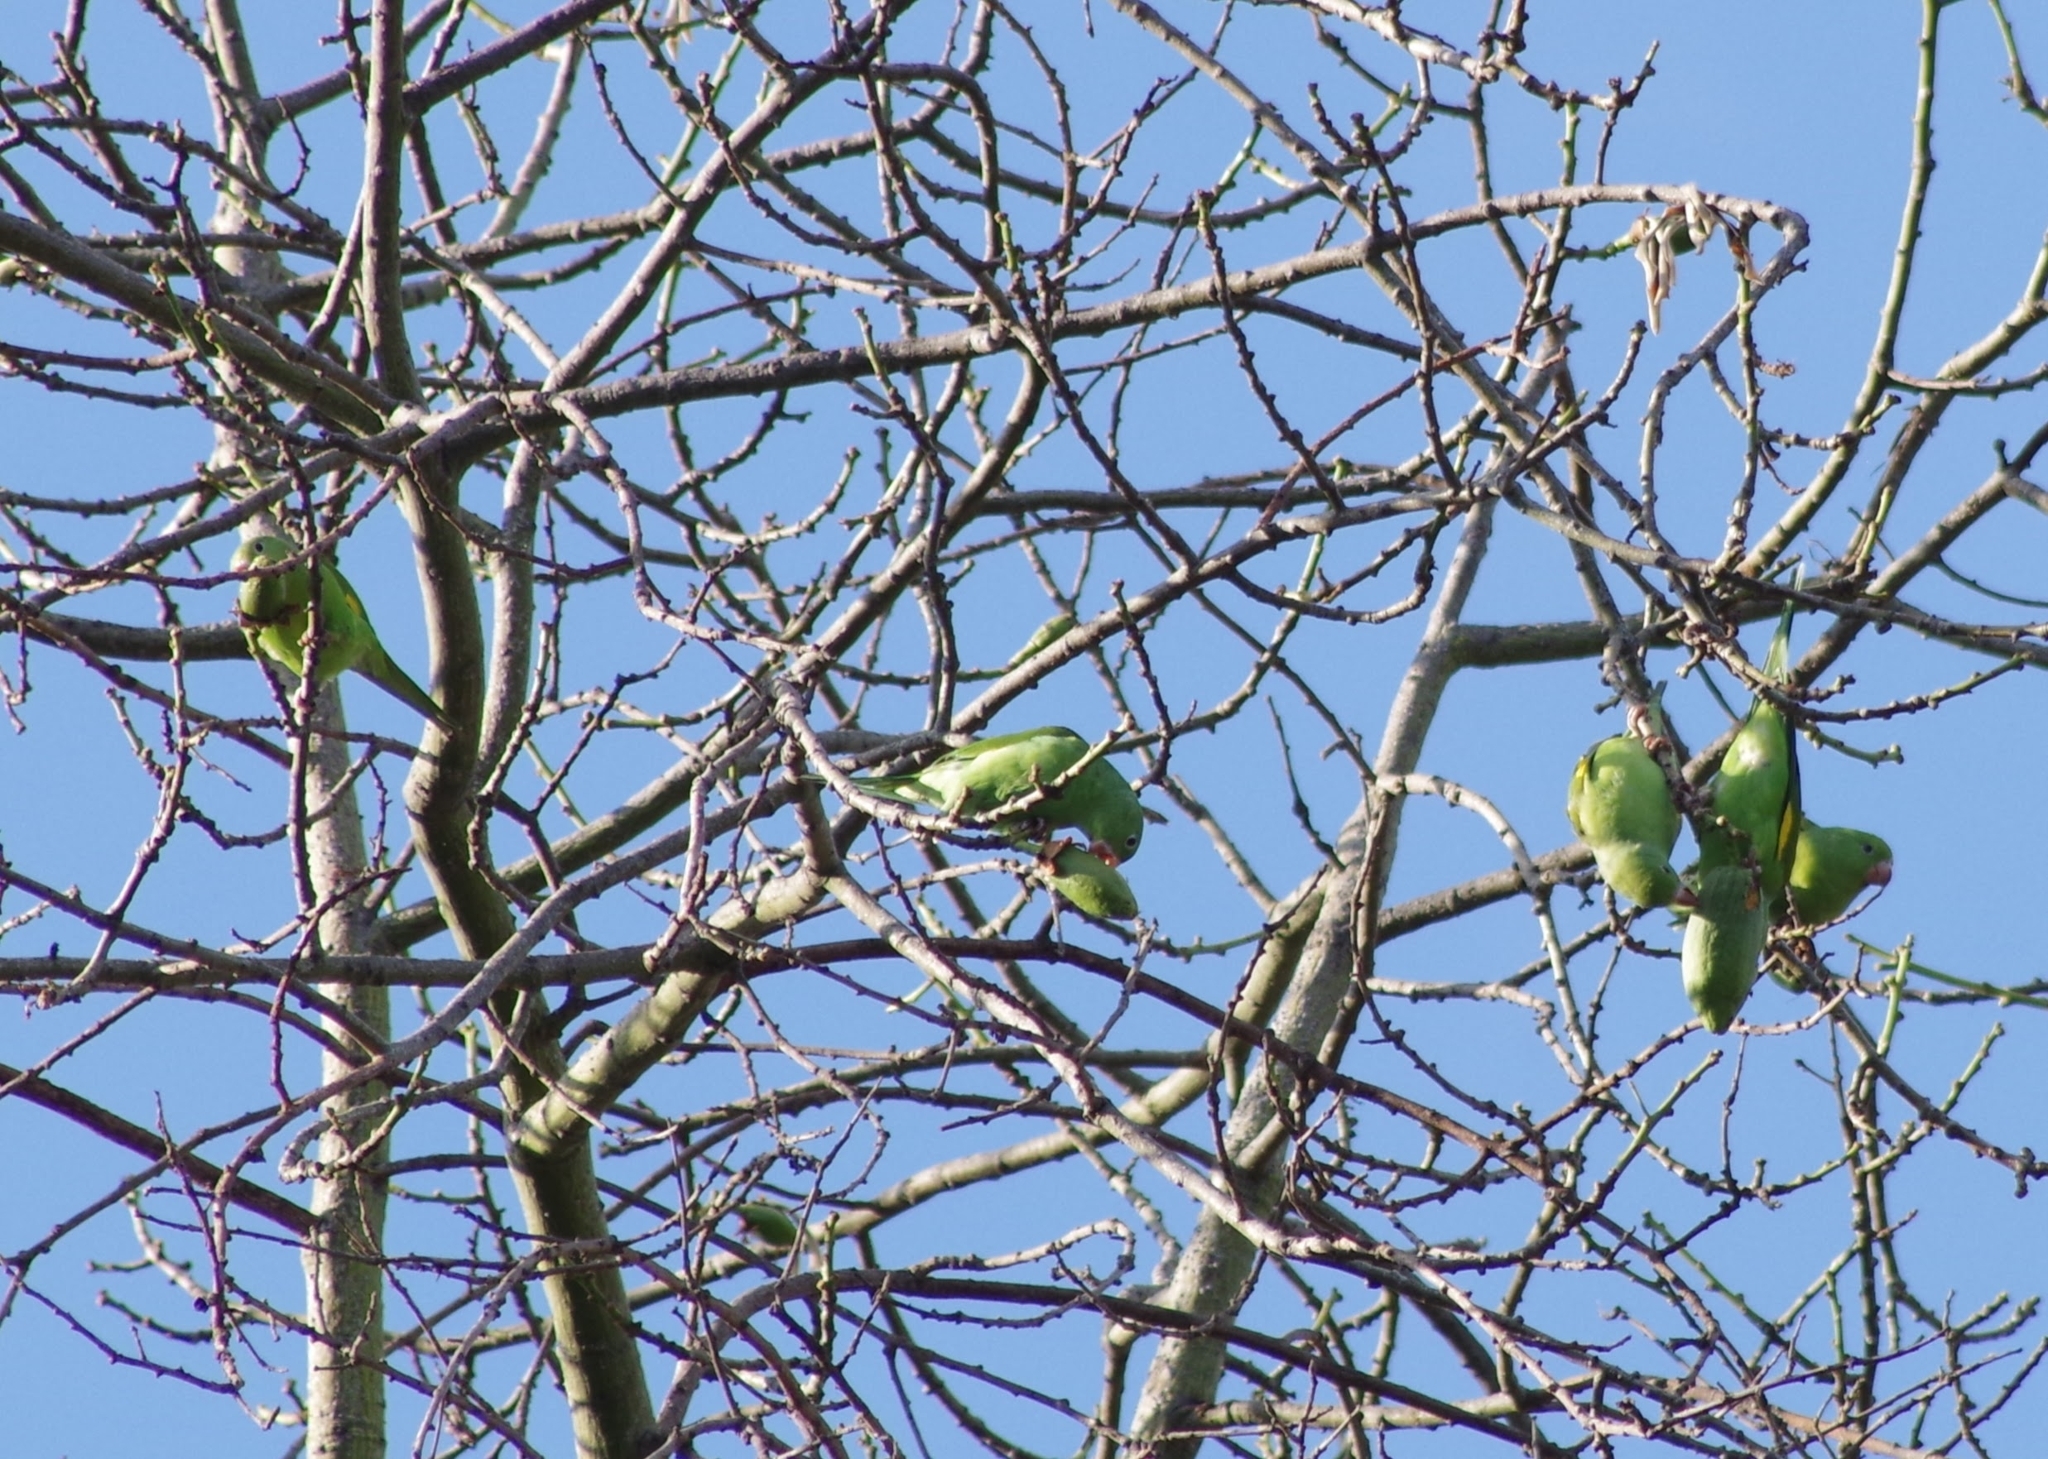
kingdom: Animalia
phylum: Chordata
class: Aves
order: Psittaciformes
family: Psittacidae
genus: Brotogeris
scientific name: Brotogeris chiriri
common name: Yellow-chevroned parakeet
